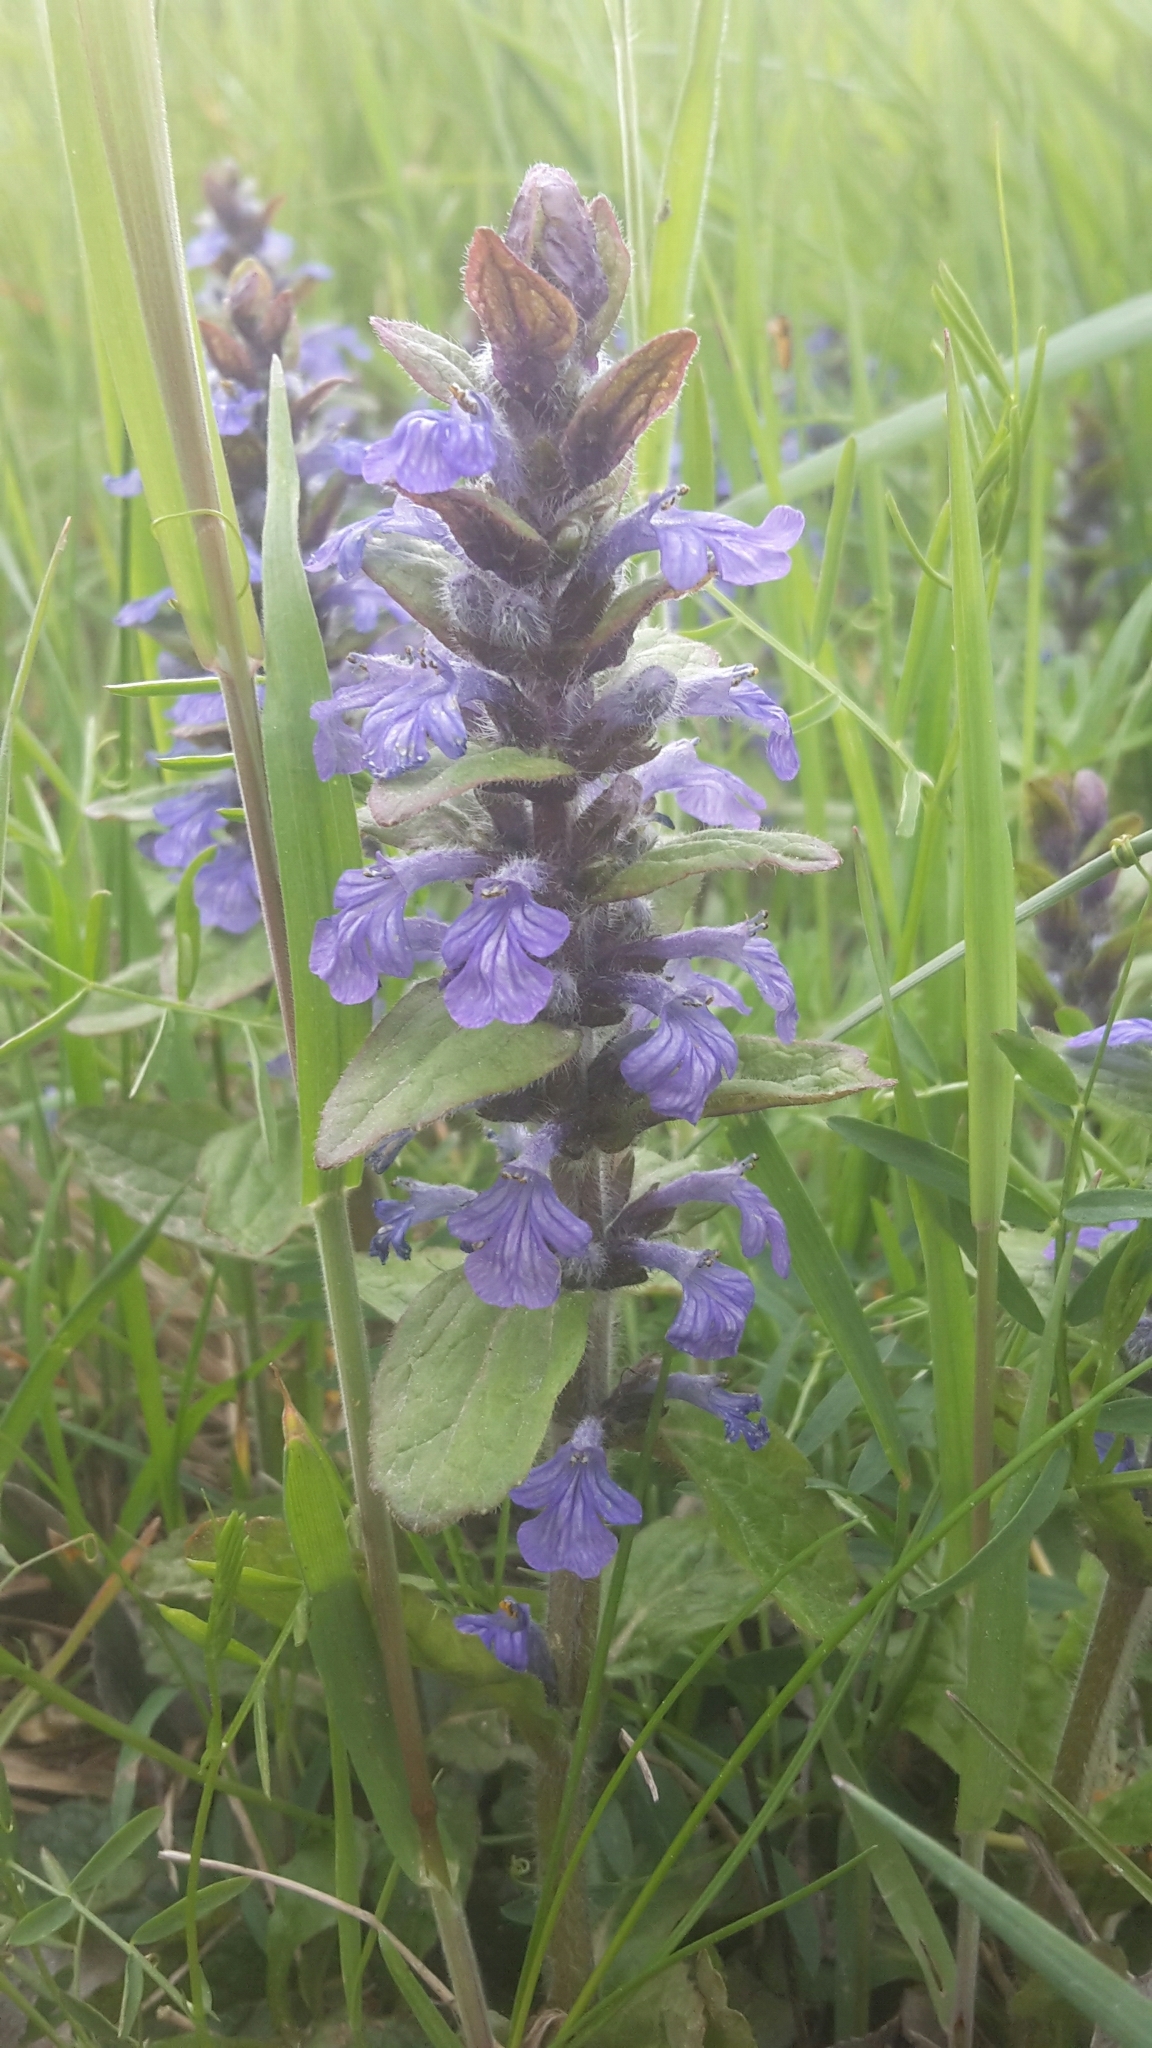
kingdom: Plantae
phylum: Tracheophyta
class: Magnoliopsida
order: Lamiales
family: Lamiaceae
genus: Ajuga
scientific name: Ajuga reptans
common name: Bugle
